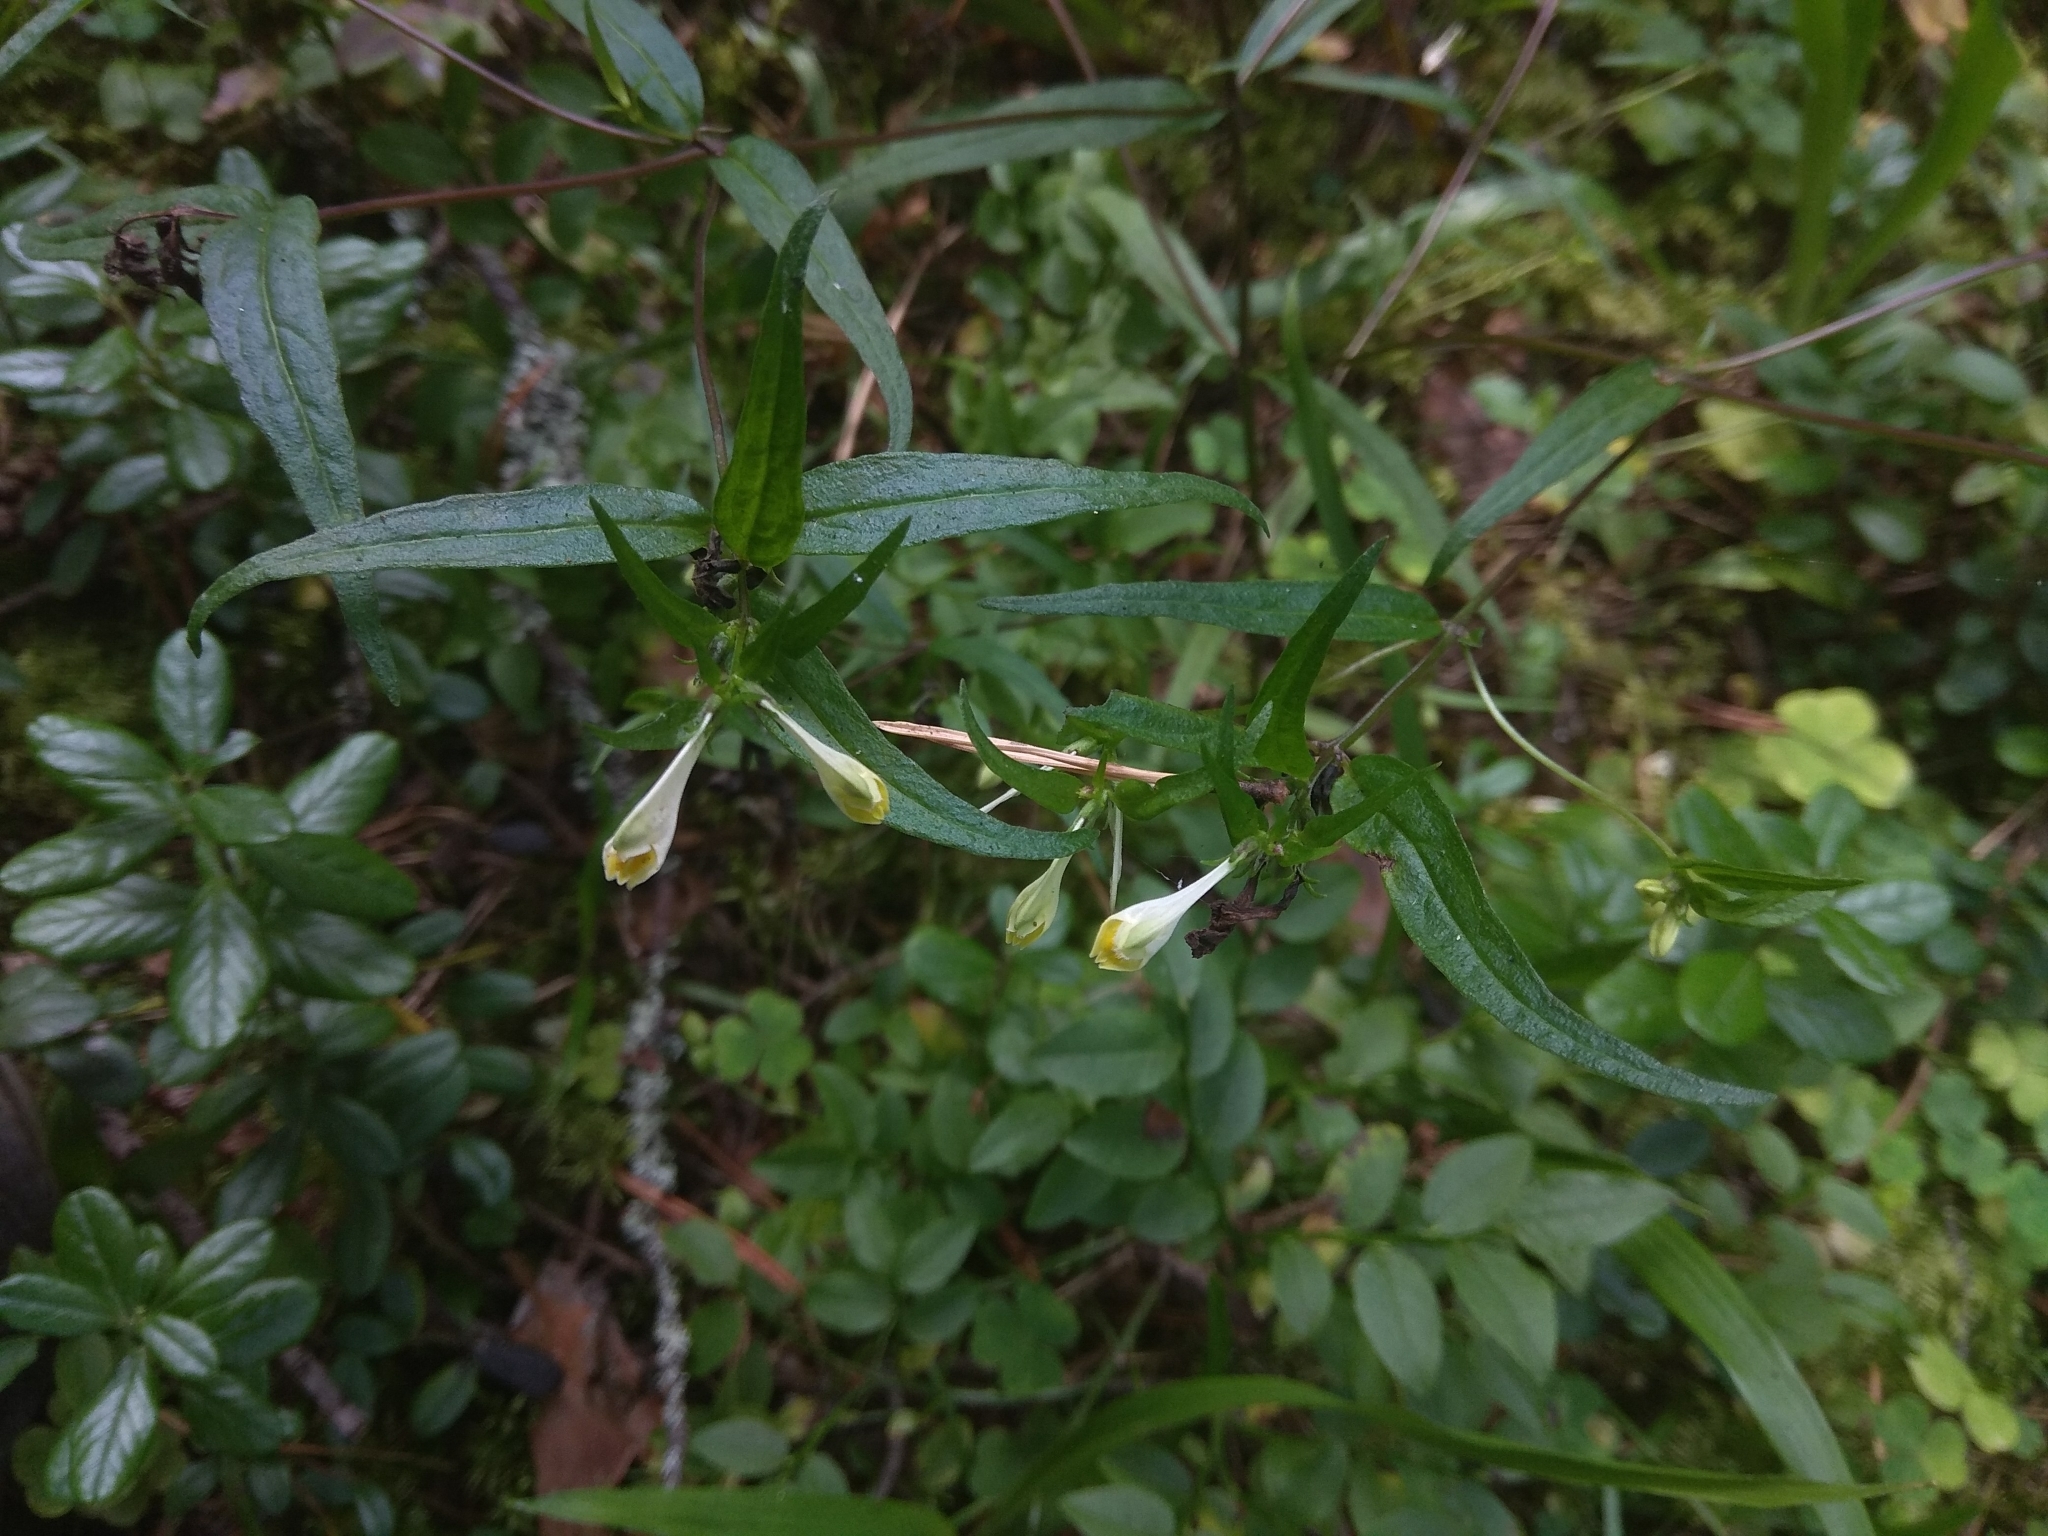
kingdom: Plantae
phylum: Tracheophyta
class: Magnoliopsida
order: Lamiales
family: Orobanchaceae
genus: Melampyrum
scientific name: Melampyrum pratense
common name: Common cow-wheat
